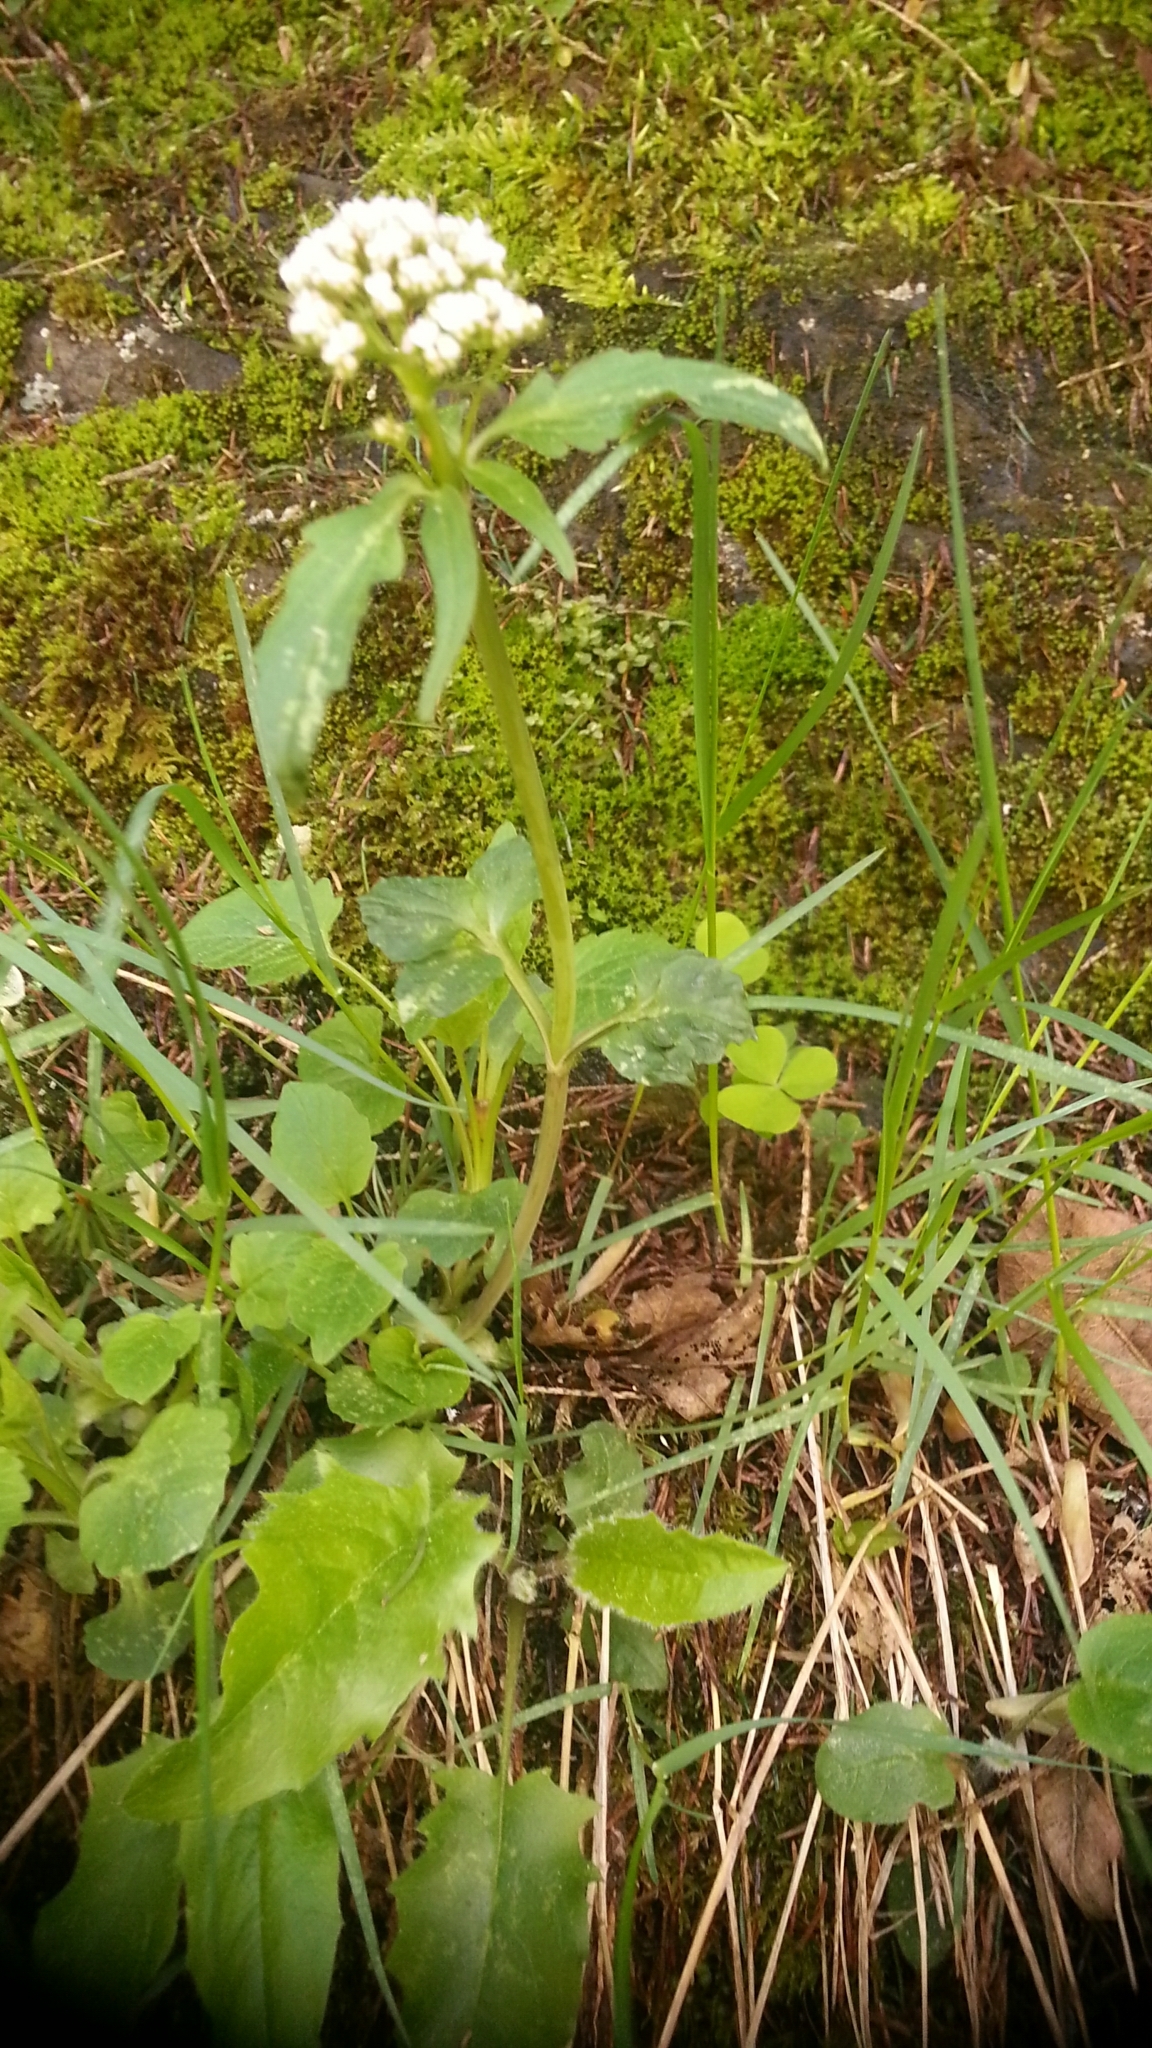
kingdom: Plantae
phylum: Tracheophyta
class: Magnoliopsida
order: Dipsacales
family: Caprifoliaceae
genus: Valeriana
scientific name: Valeriana tripteris
